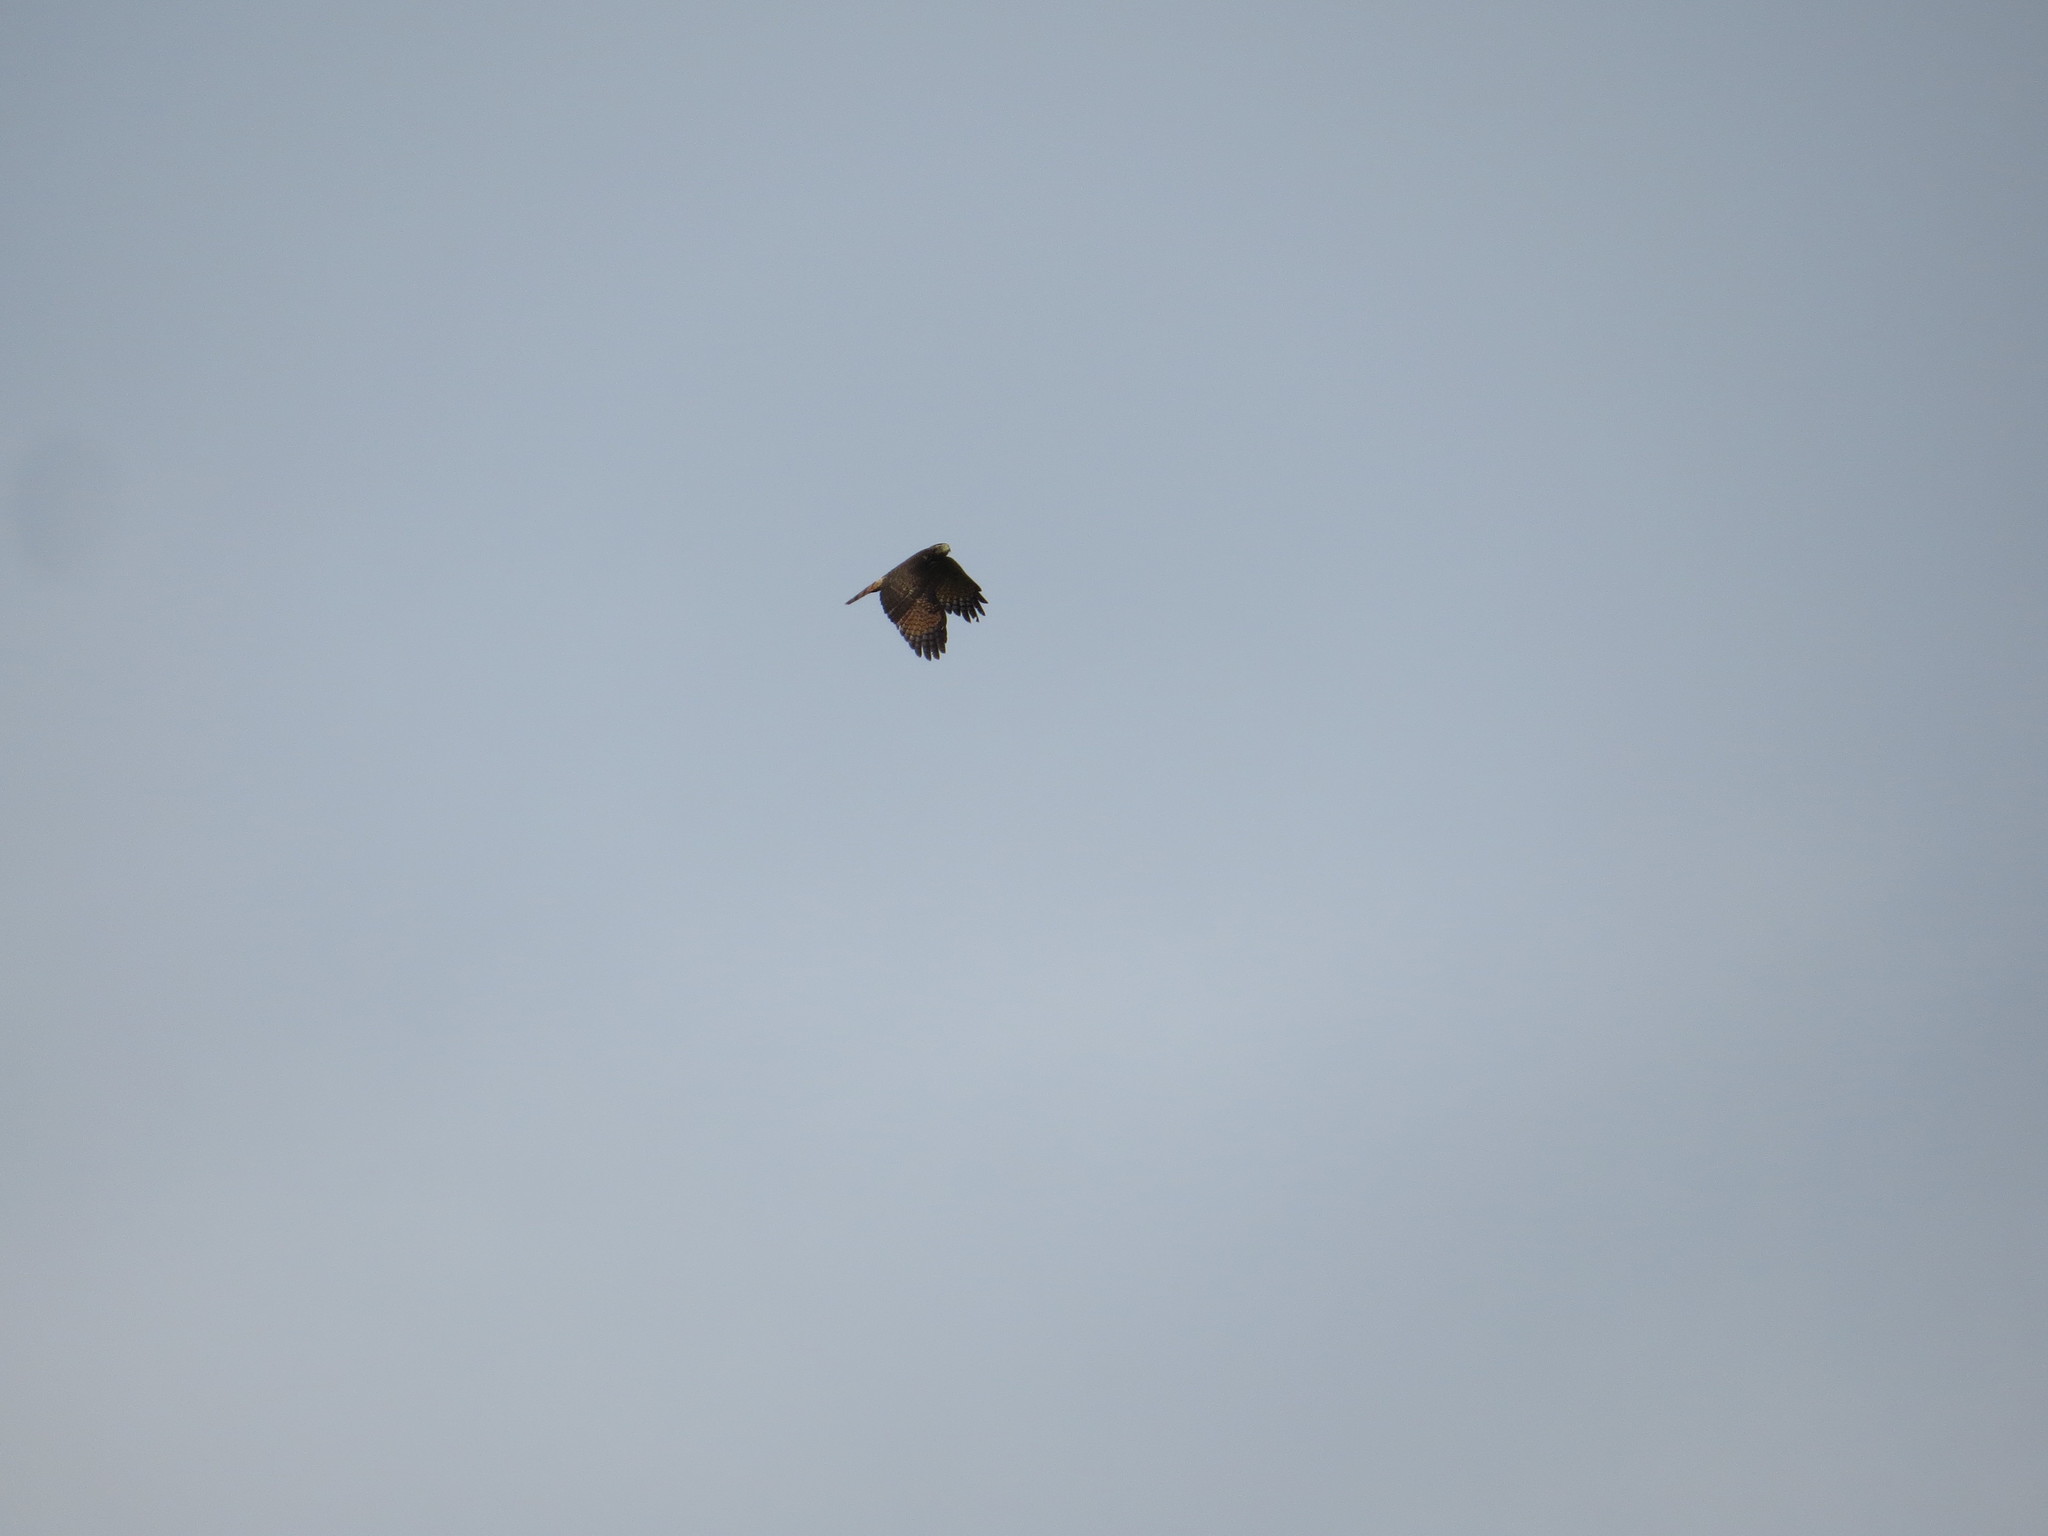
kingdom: Animalia
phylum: Chordata
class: Aves
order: Accipitriformes
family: Accipitridae
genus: Rupornis
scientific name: Rupornis magnirostris
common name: Roadside hawk
